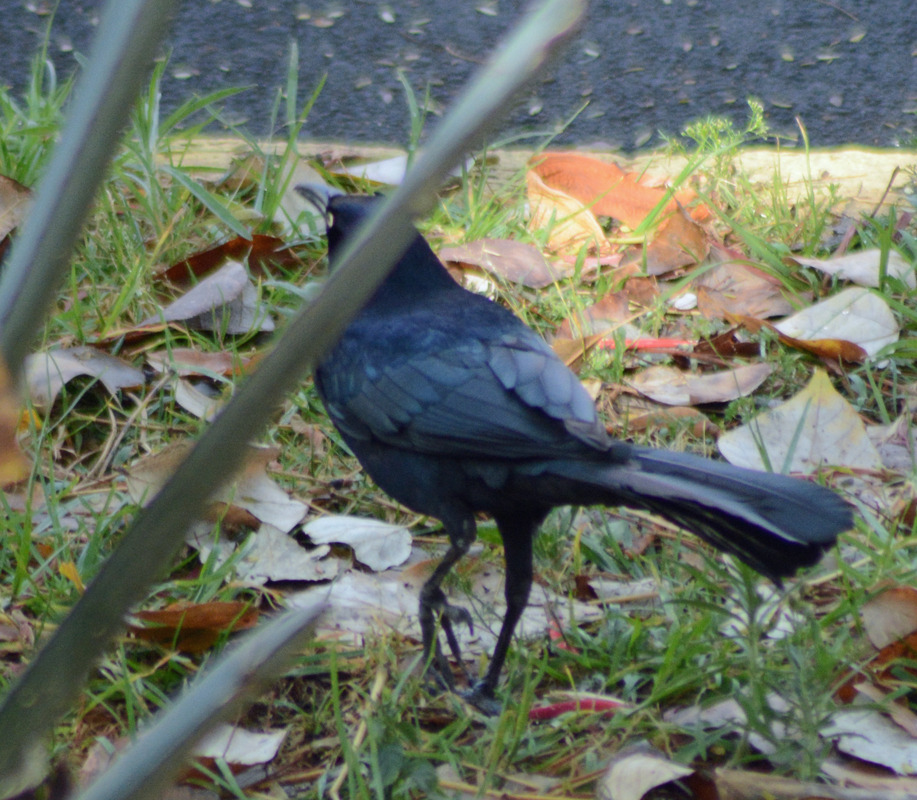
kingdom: Animalia
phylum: Chordata
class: Aves
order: Passeriformes
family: Icteridae
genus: Quiscalus
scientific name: Quiscalus mexicanus
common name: Great-tailed grackle
